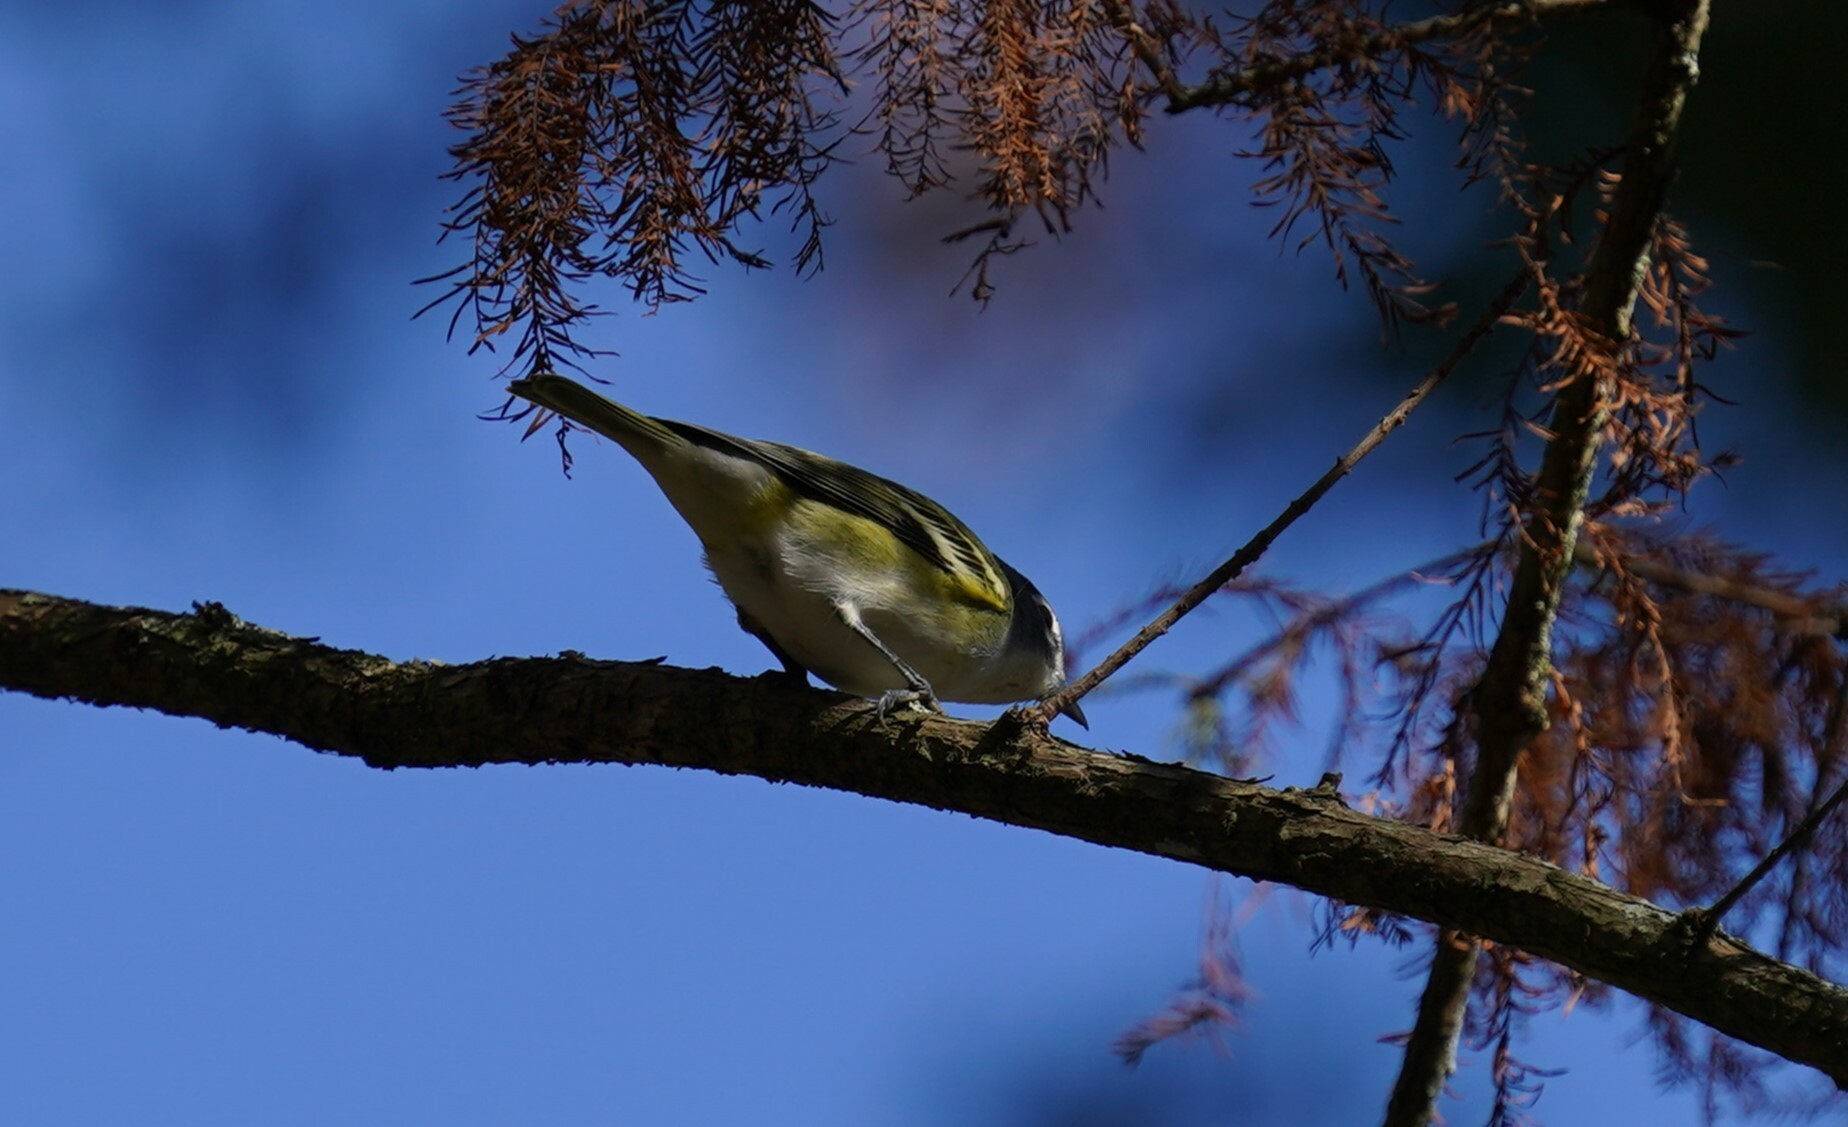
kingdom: Animalia
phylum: Chordata
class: Aves
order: Passeriformes
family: Vireonidae
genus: Vireo
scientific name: Vireo solitarius
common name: Blue-headed vireo
